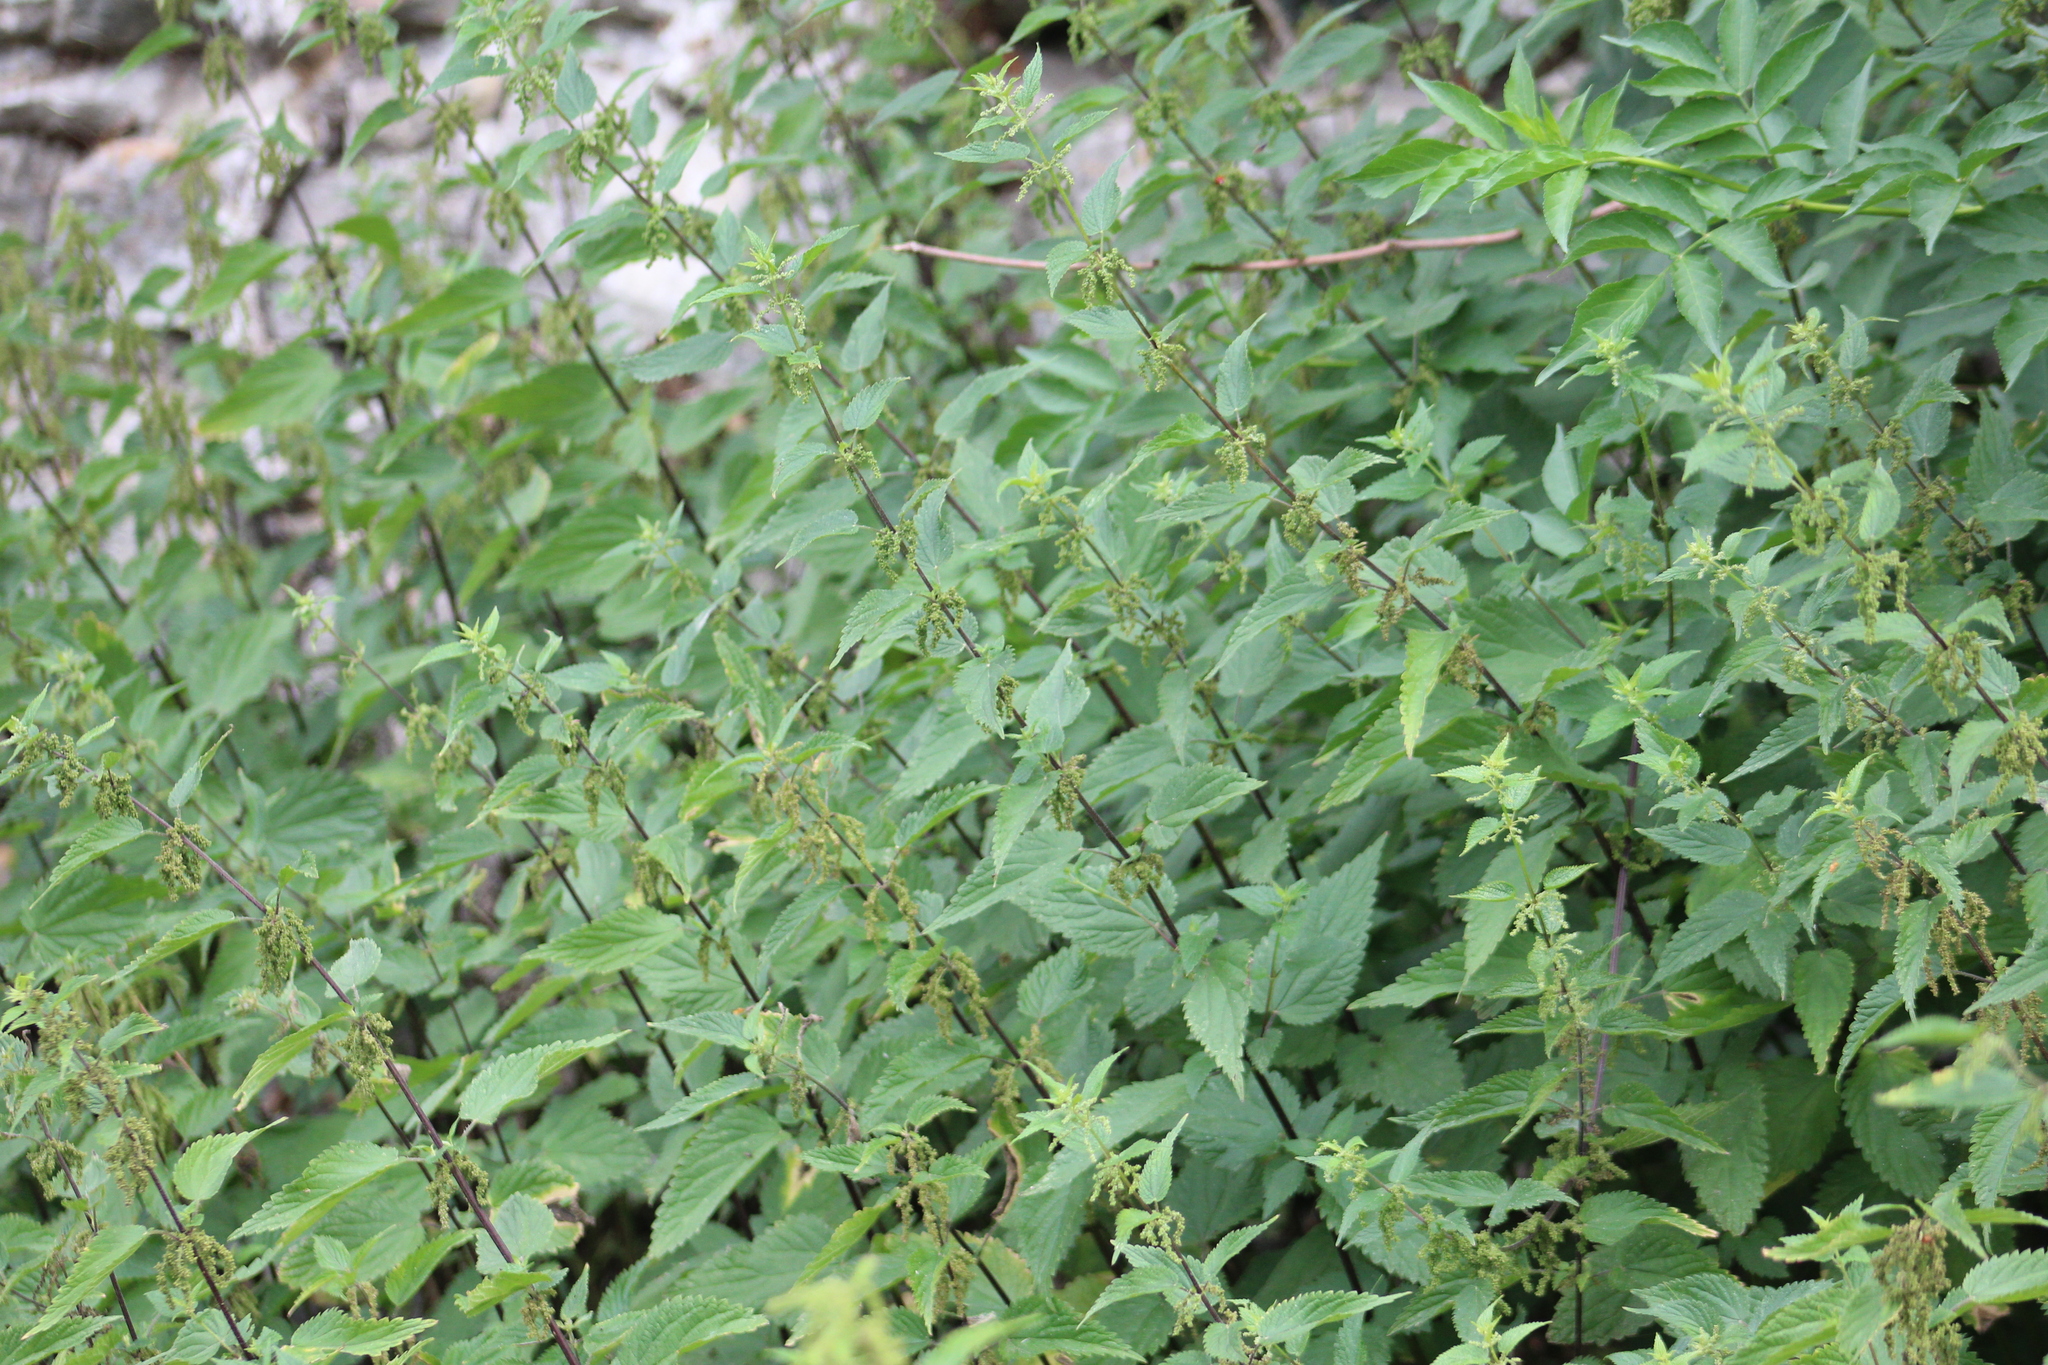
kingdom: Plantae
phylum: Tracheophyta
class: Magnoliopsida
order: Rosales
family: Urticaceae
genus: Urtica
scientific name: Urtica dioica
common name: Common nettle
